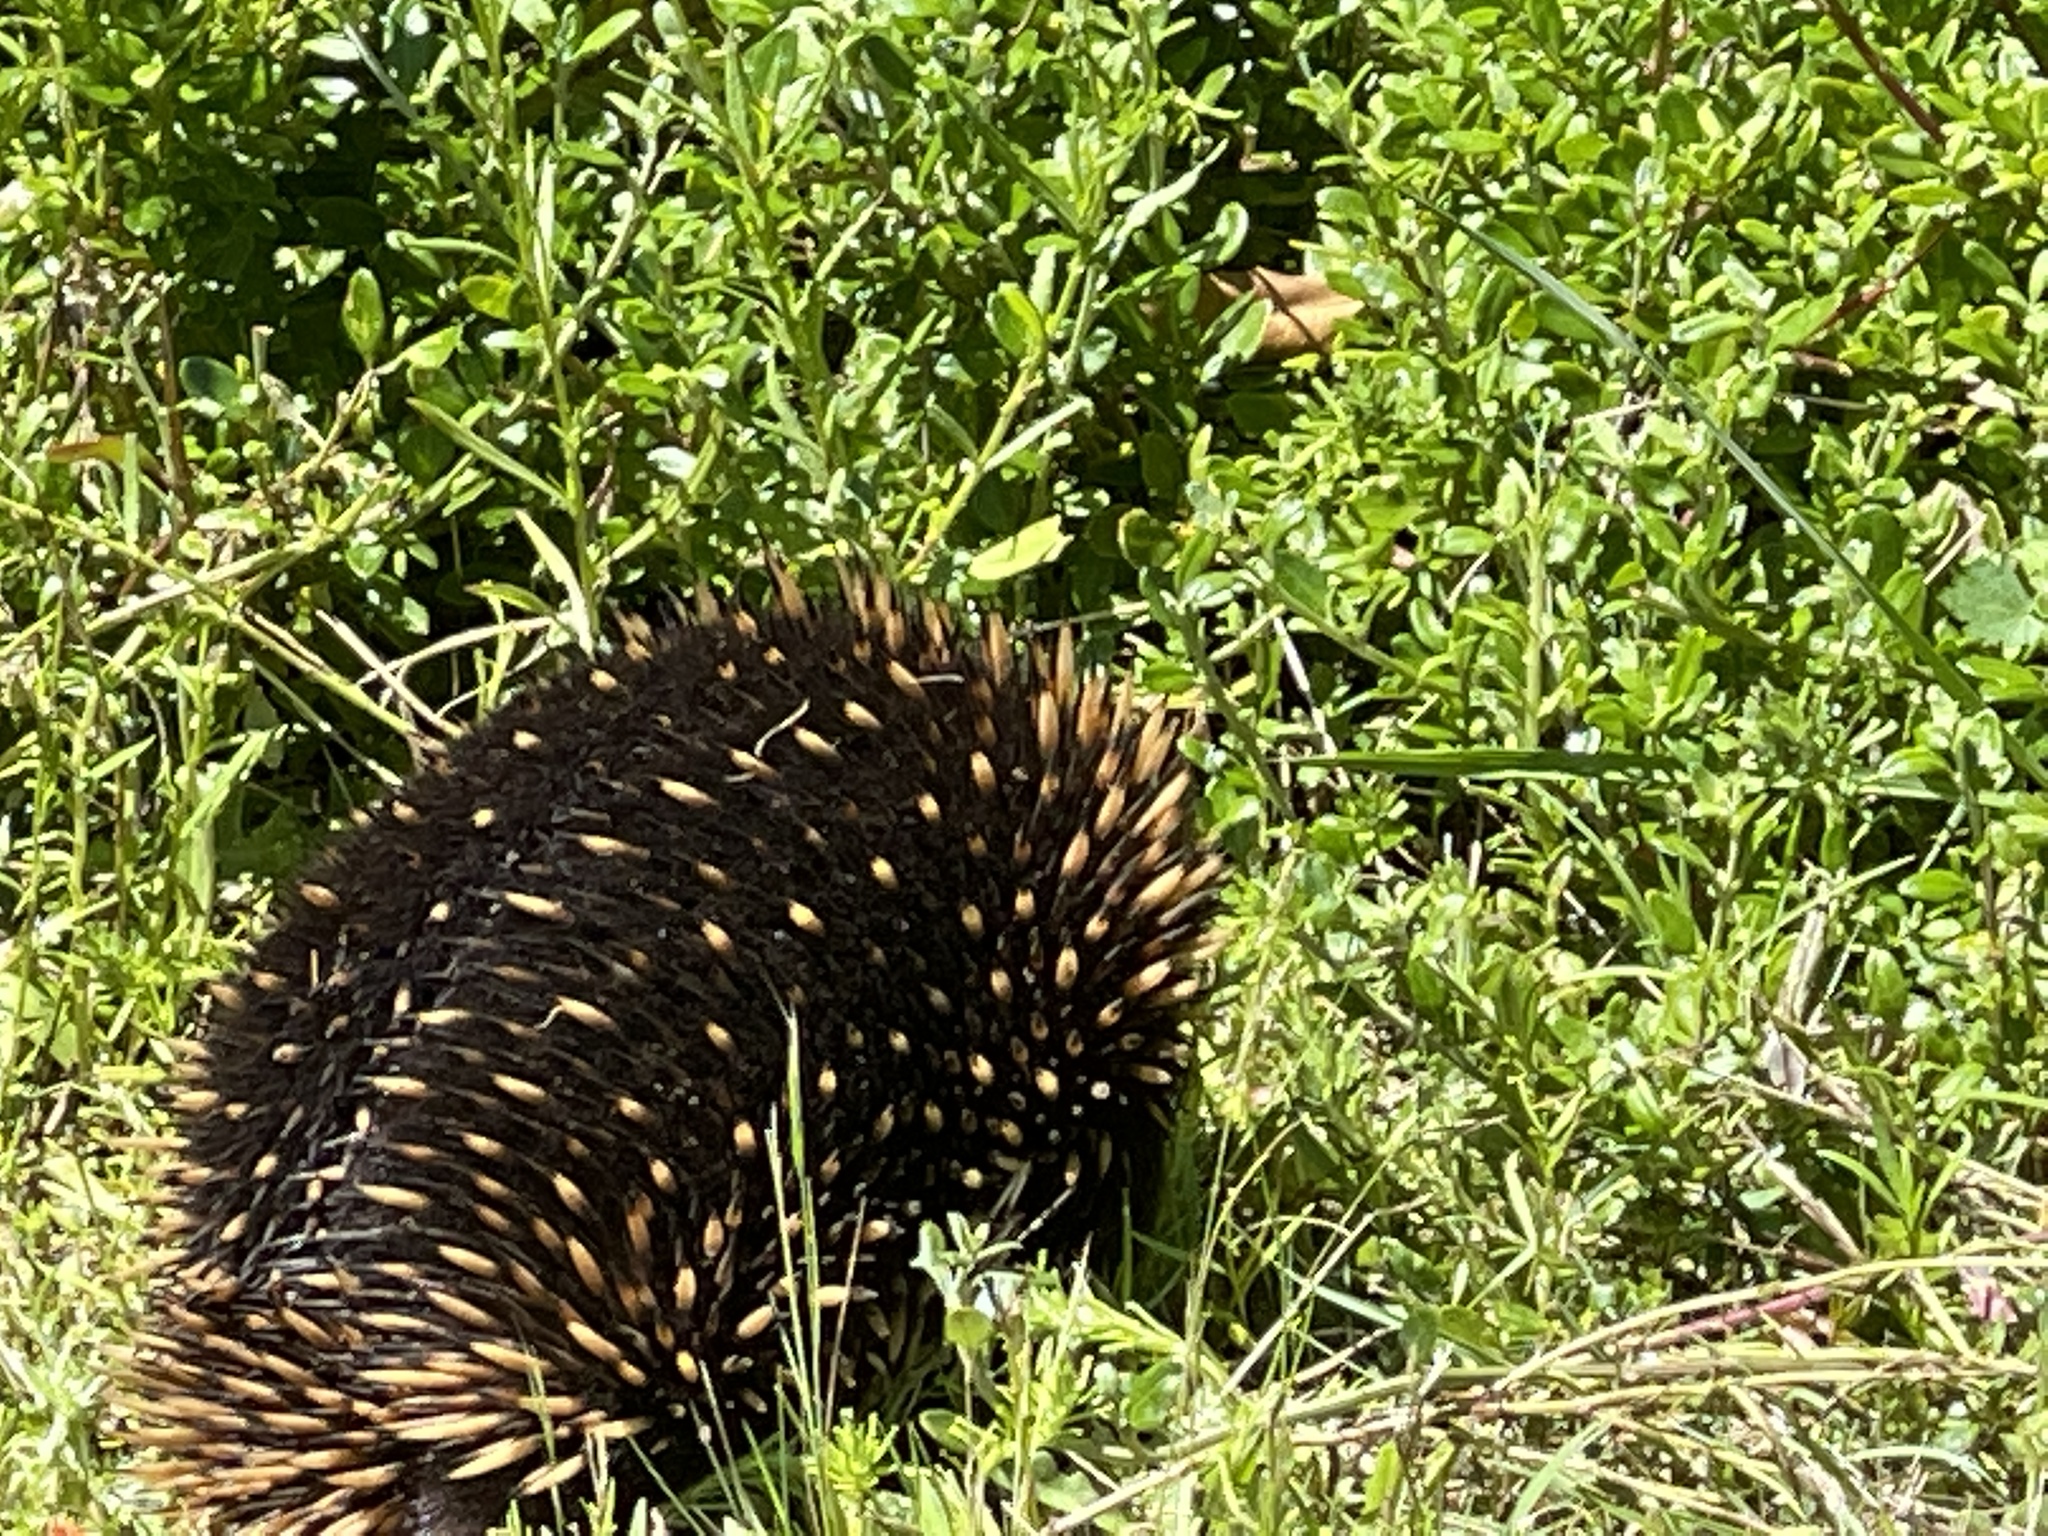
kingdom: Animalia
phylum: Chordata
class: Mammalia
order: Monotremata
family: Tachyglossidae
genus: Tachyglossus
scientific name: Tachyglossus aculeatus
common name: Short-beaked echidna
